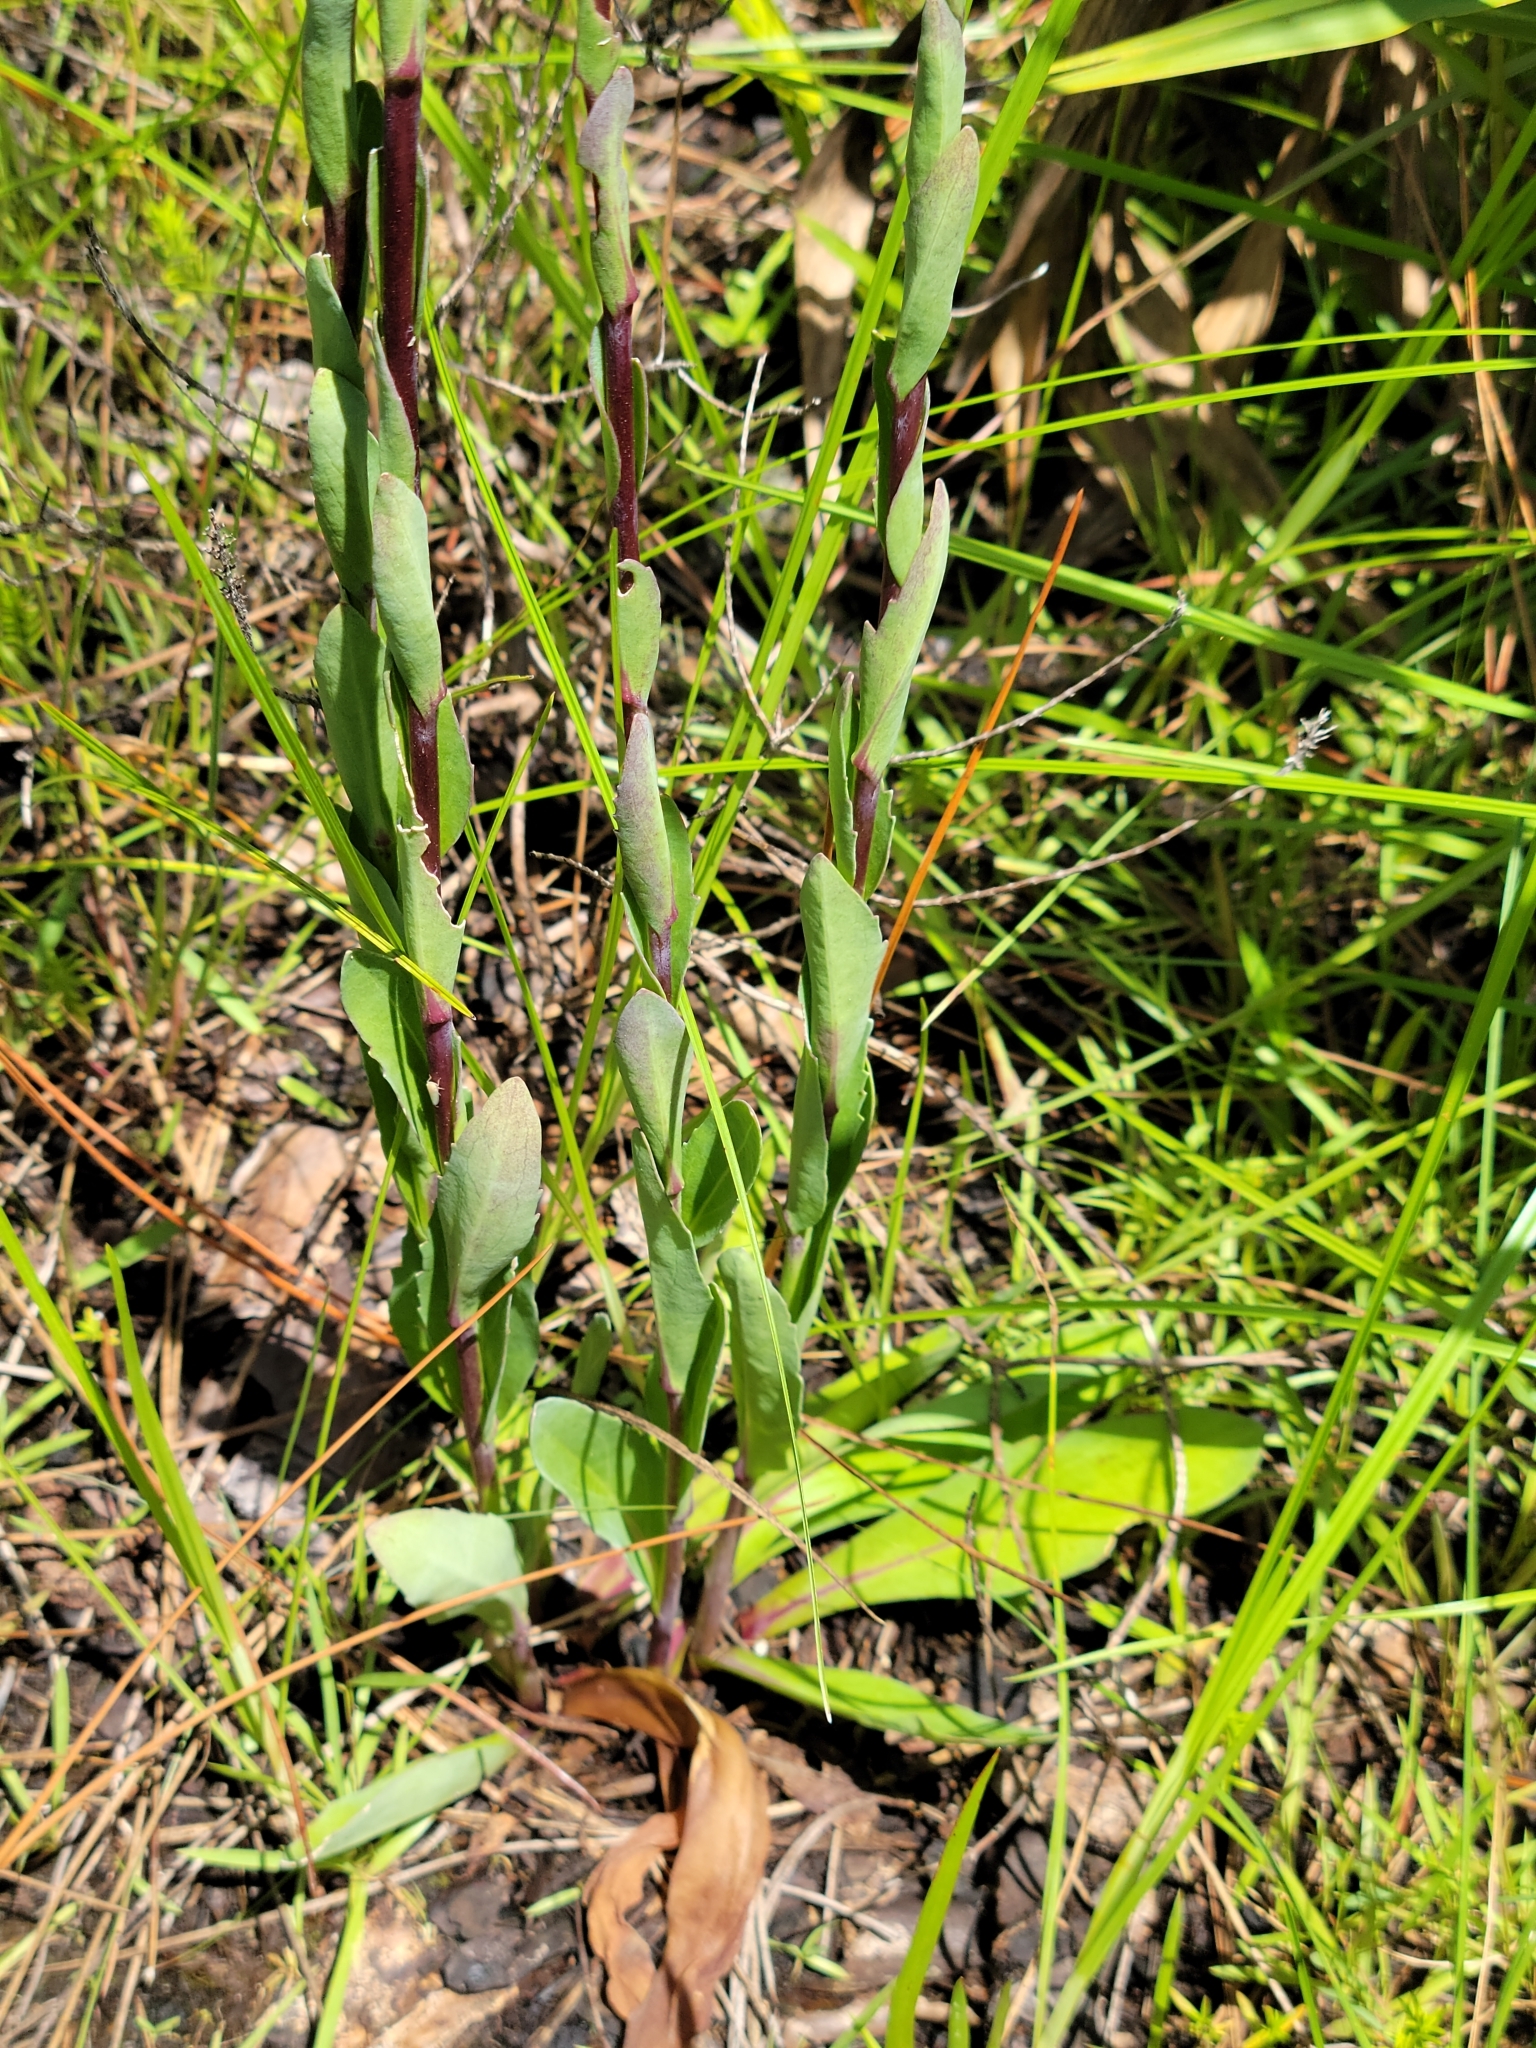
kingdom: Plantae
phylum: Tracheophyta
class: Magnoliopsida
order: Asterales
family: Asteraceae
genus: Carphephorus
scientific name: Carphephorus
